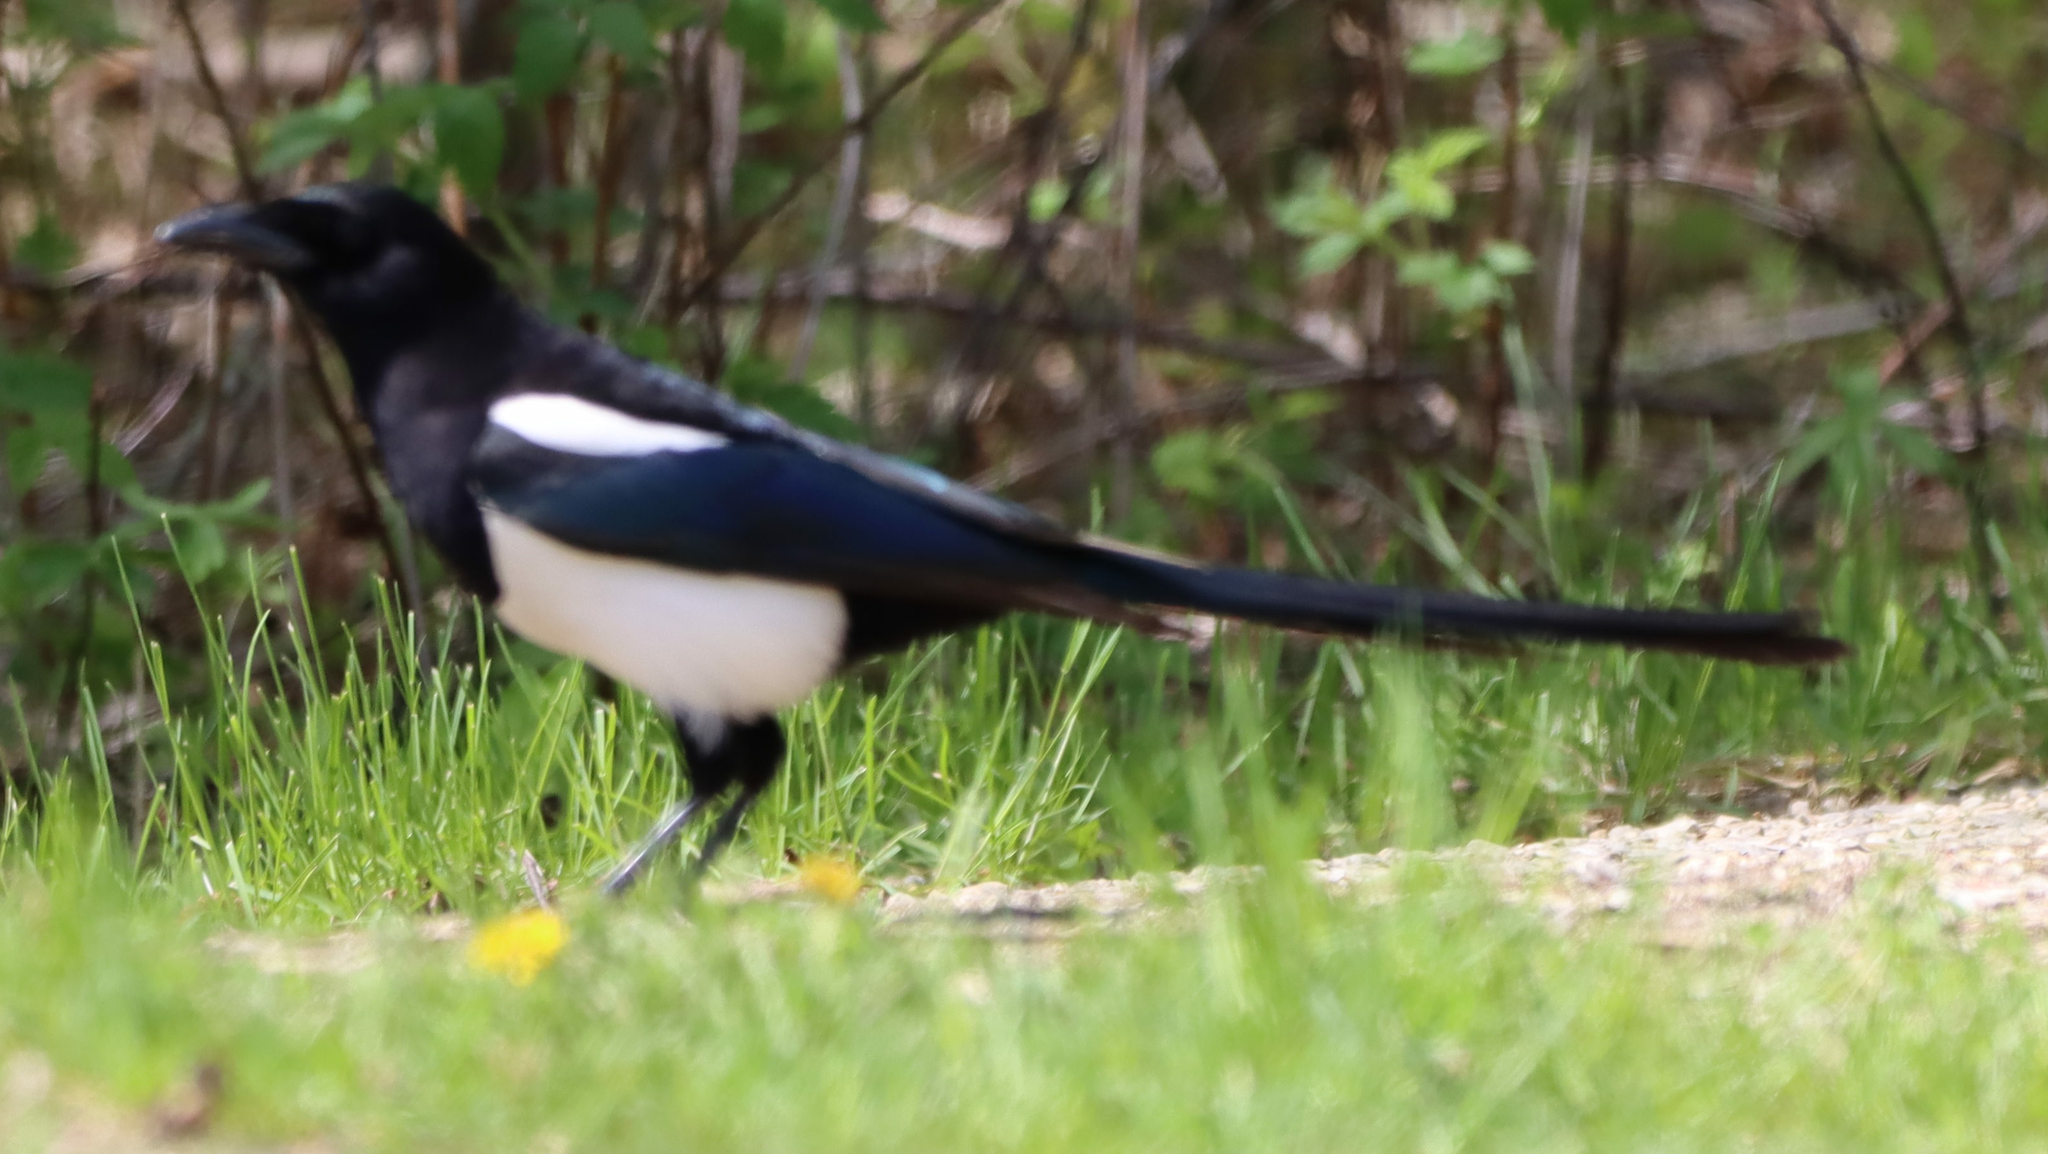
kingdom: Animalia
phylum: Chordata
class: Aves
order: Passeriformes
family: Corvidae
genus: Pica
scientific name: Pica hudsonia
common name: Black-billed magpie
